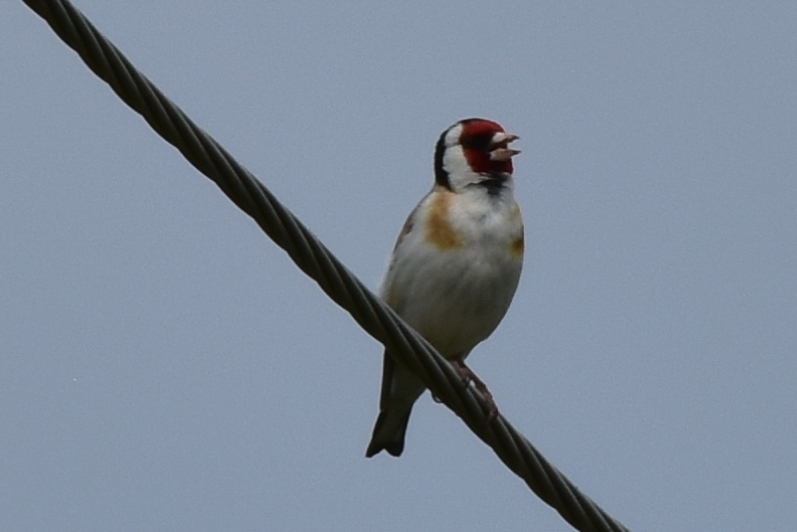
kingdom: Animalia
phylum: Chordata
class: Aves
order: Passeriformes
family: Fringillidae
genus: Carduelis
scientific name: Carduelis carduelis
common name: European goldfinch
